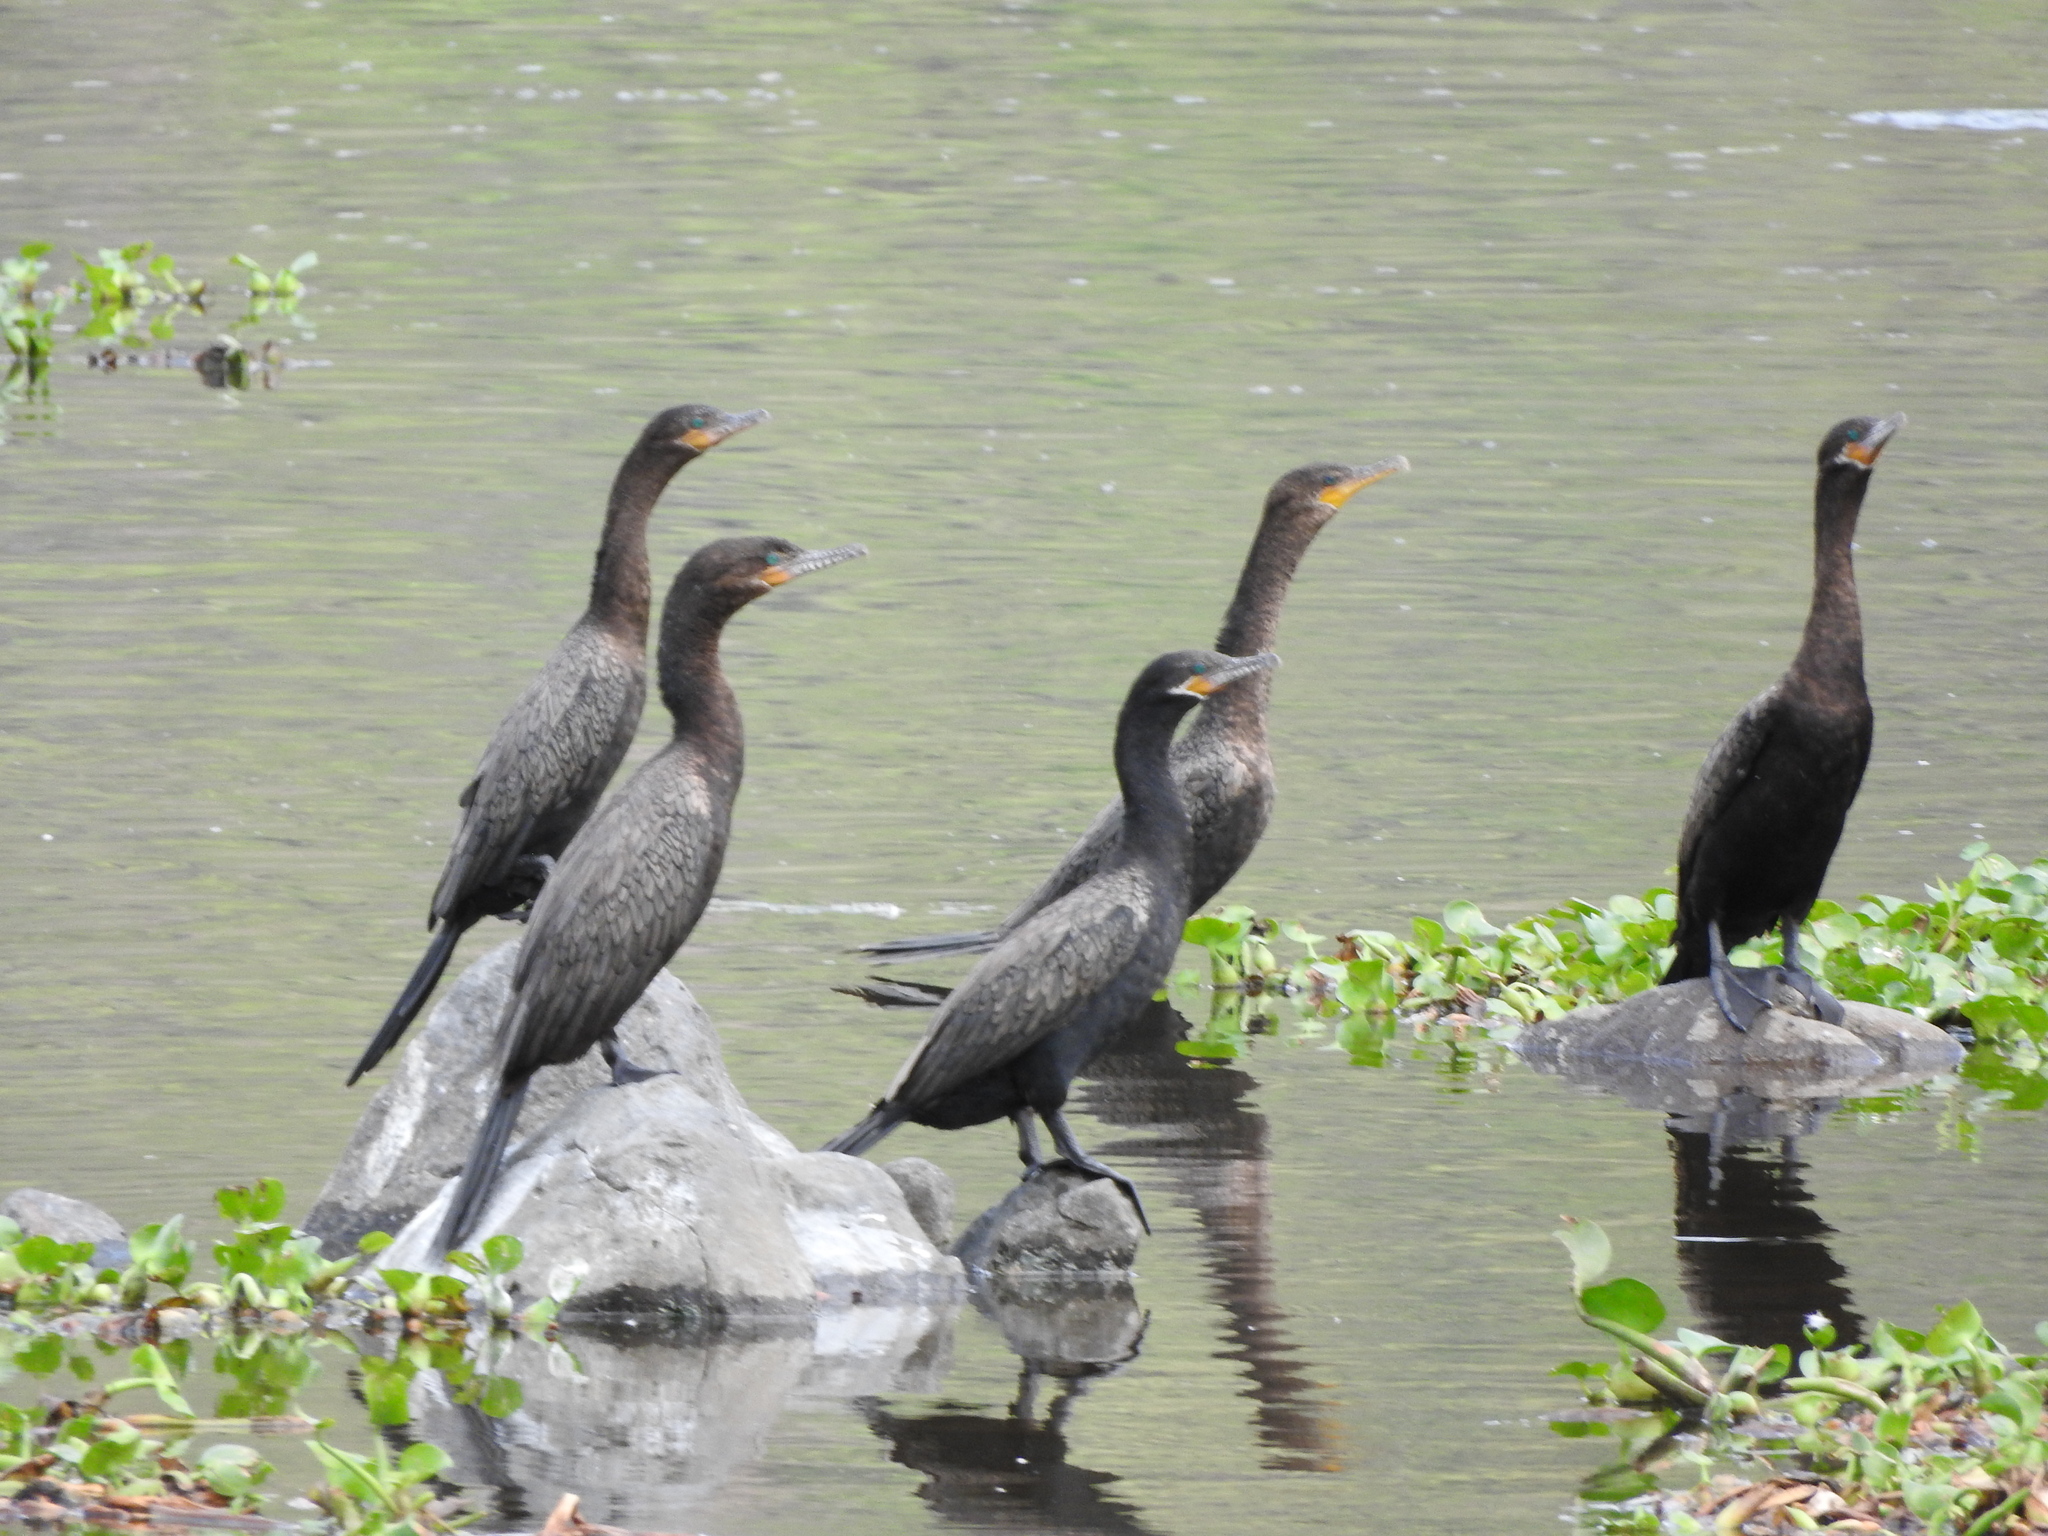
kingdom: Animalia
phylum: Chordata
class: Aves
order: Suliformes
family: Phalacrocoracidae
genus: Phalacrocorax
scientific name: Phalacrocorax brasilianus
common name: Neotropic cormorant
